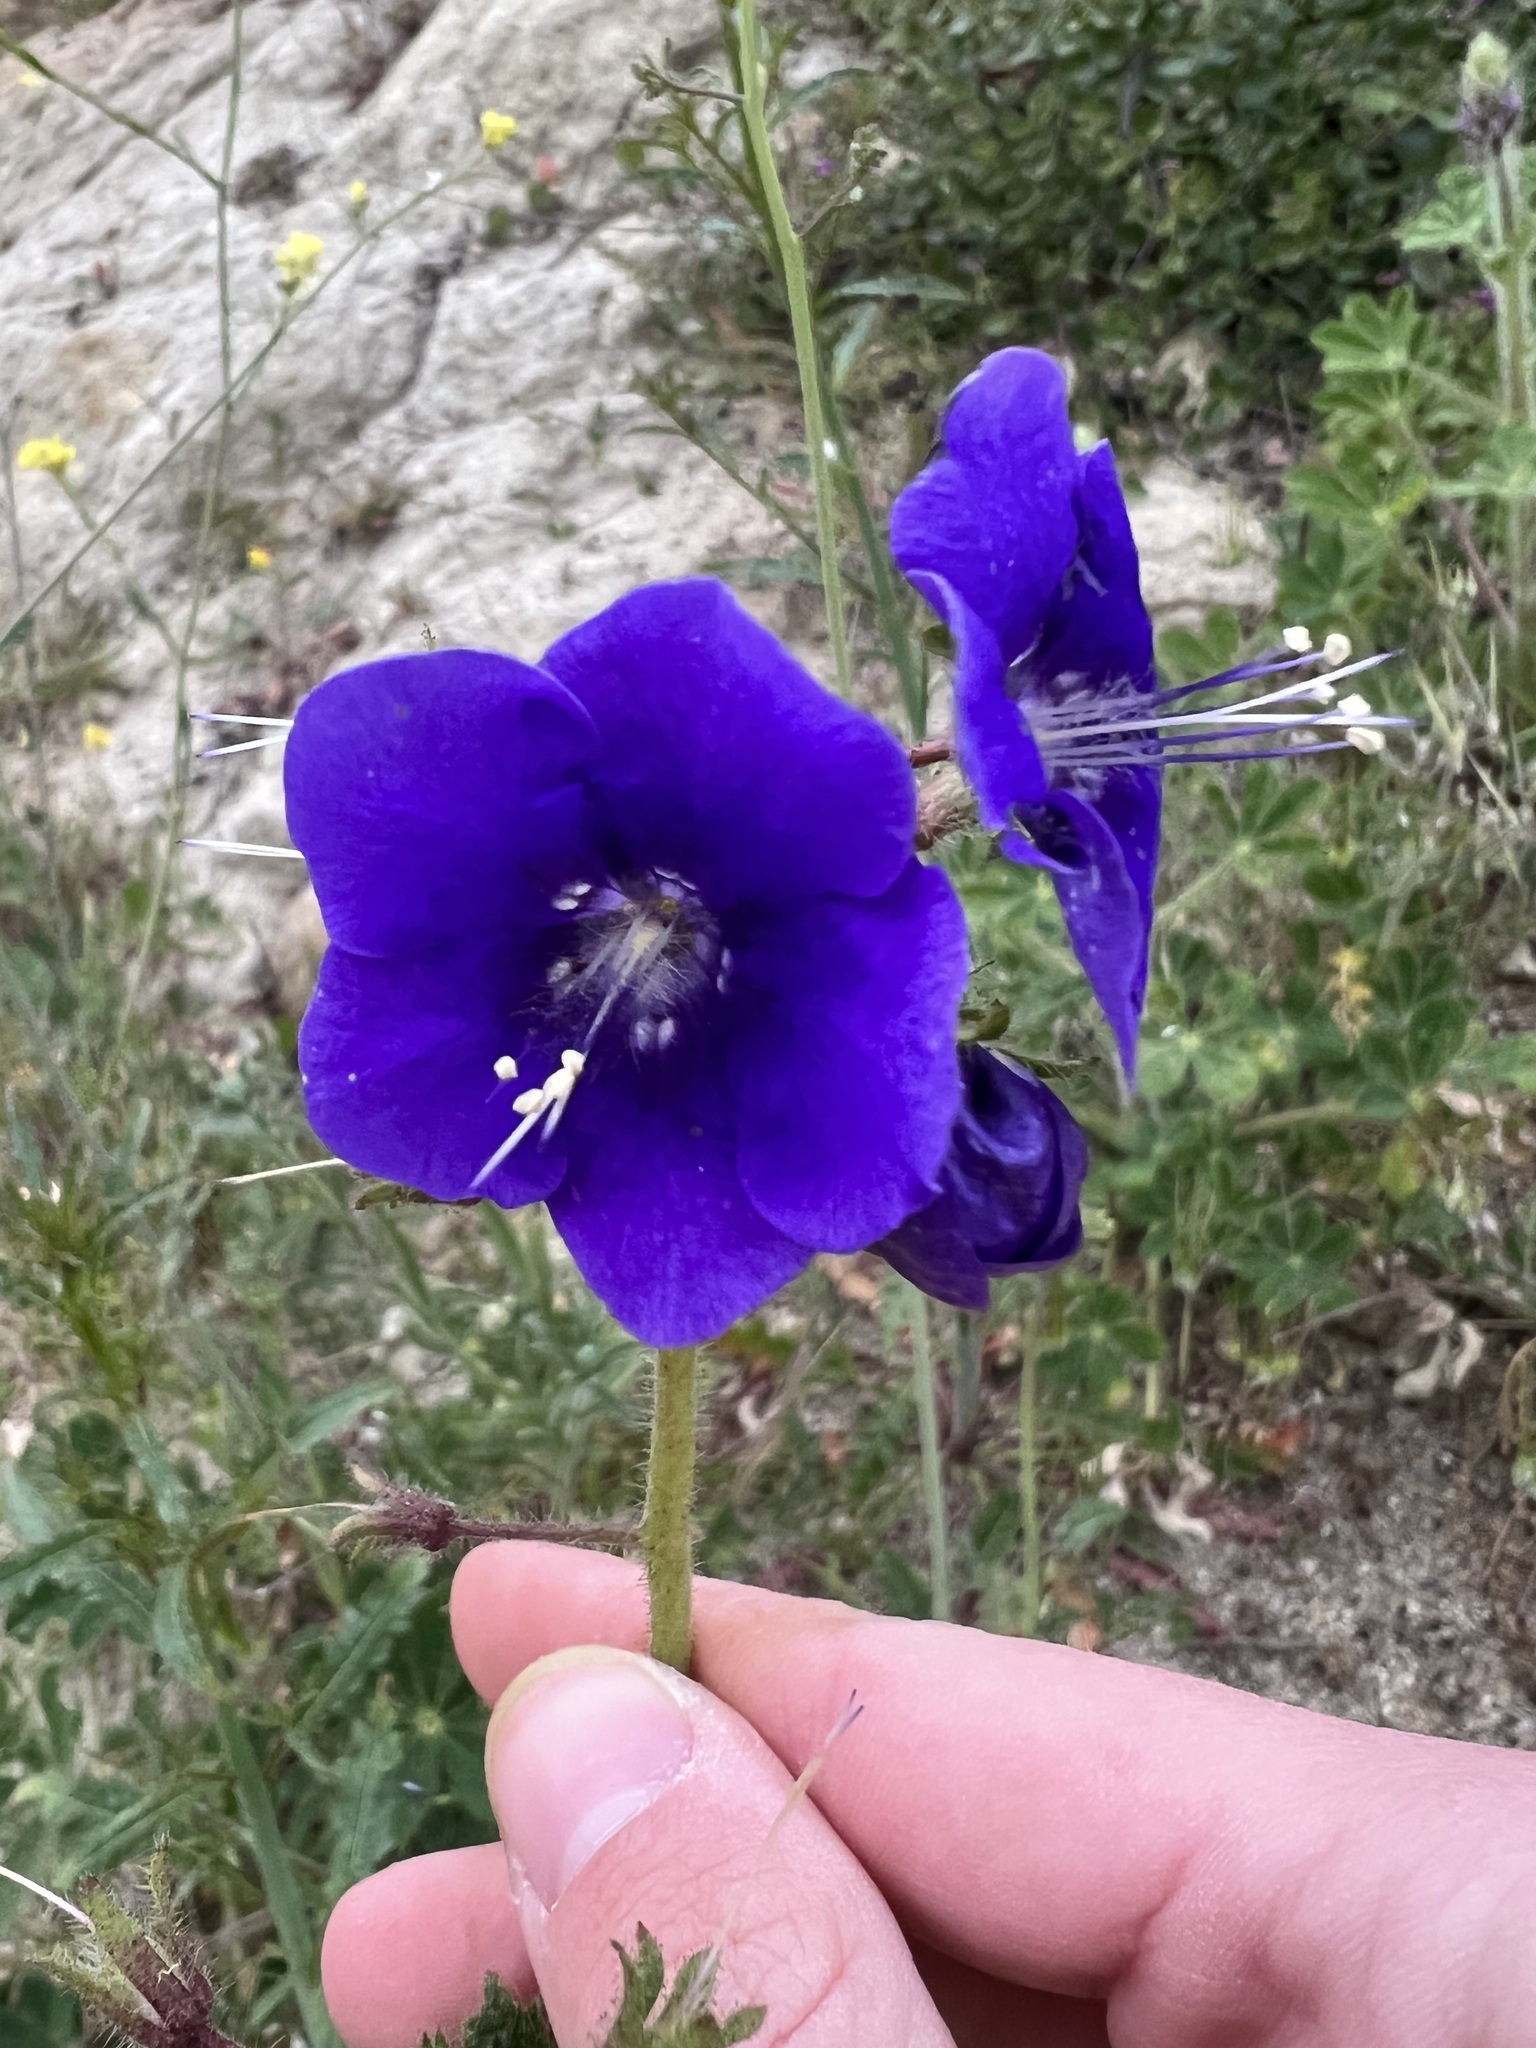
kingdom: Plantae
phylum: Tracheophyta
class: Magnoliopsida
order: Boraginales
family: Hydrophyllaceae
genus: Phacelia
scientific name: Phacelia parryi
